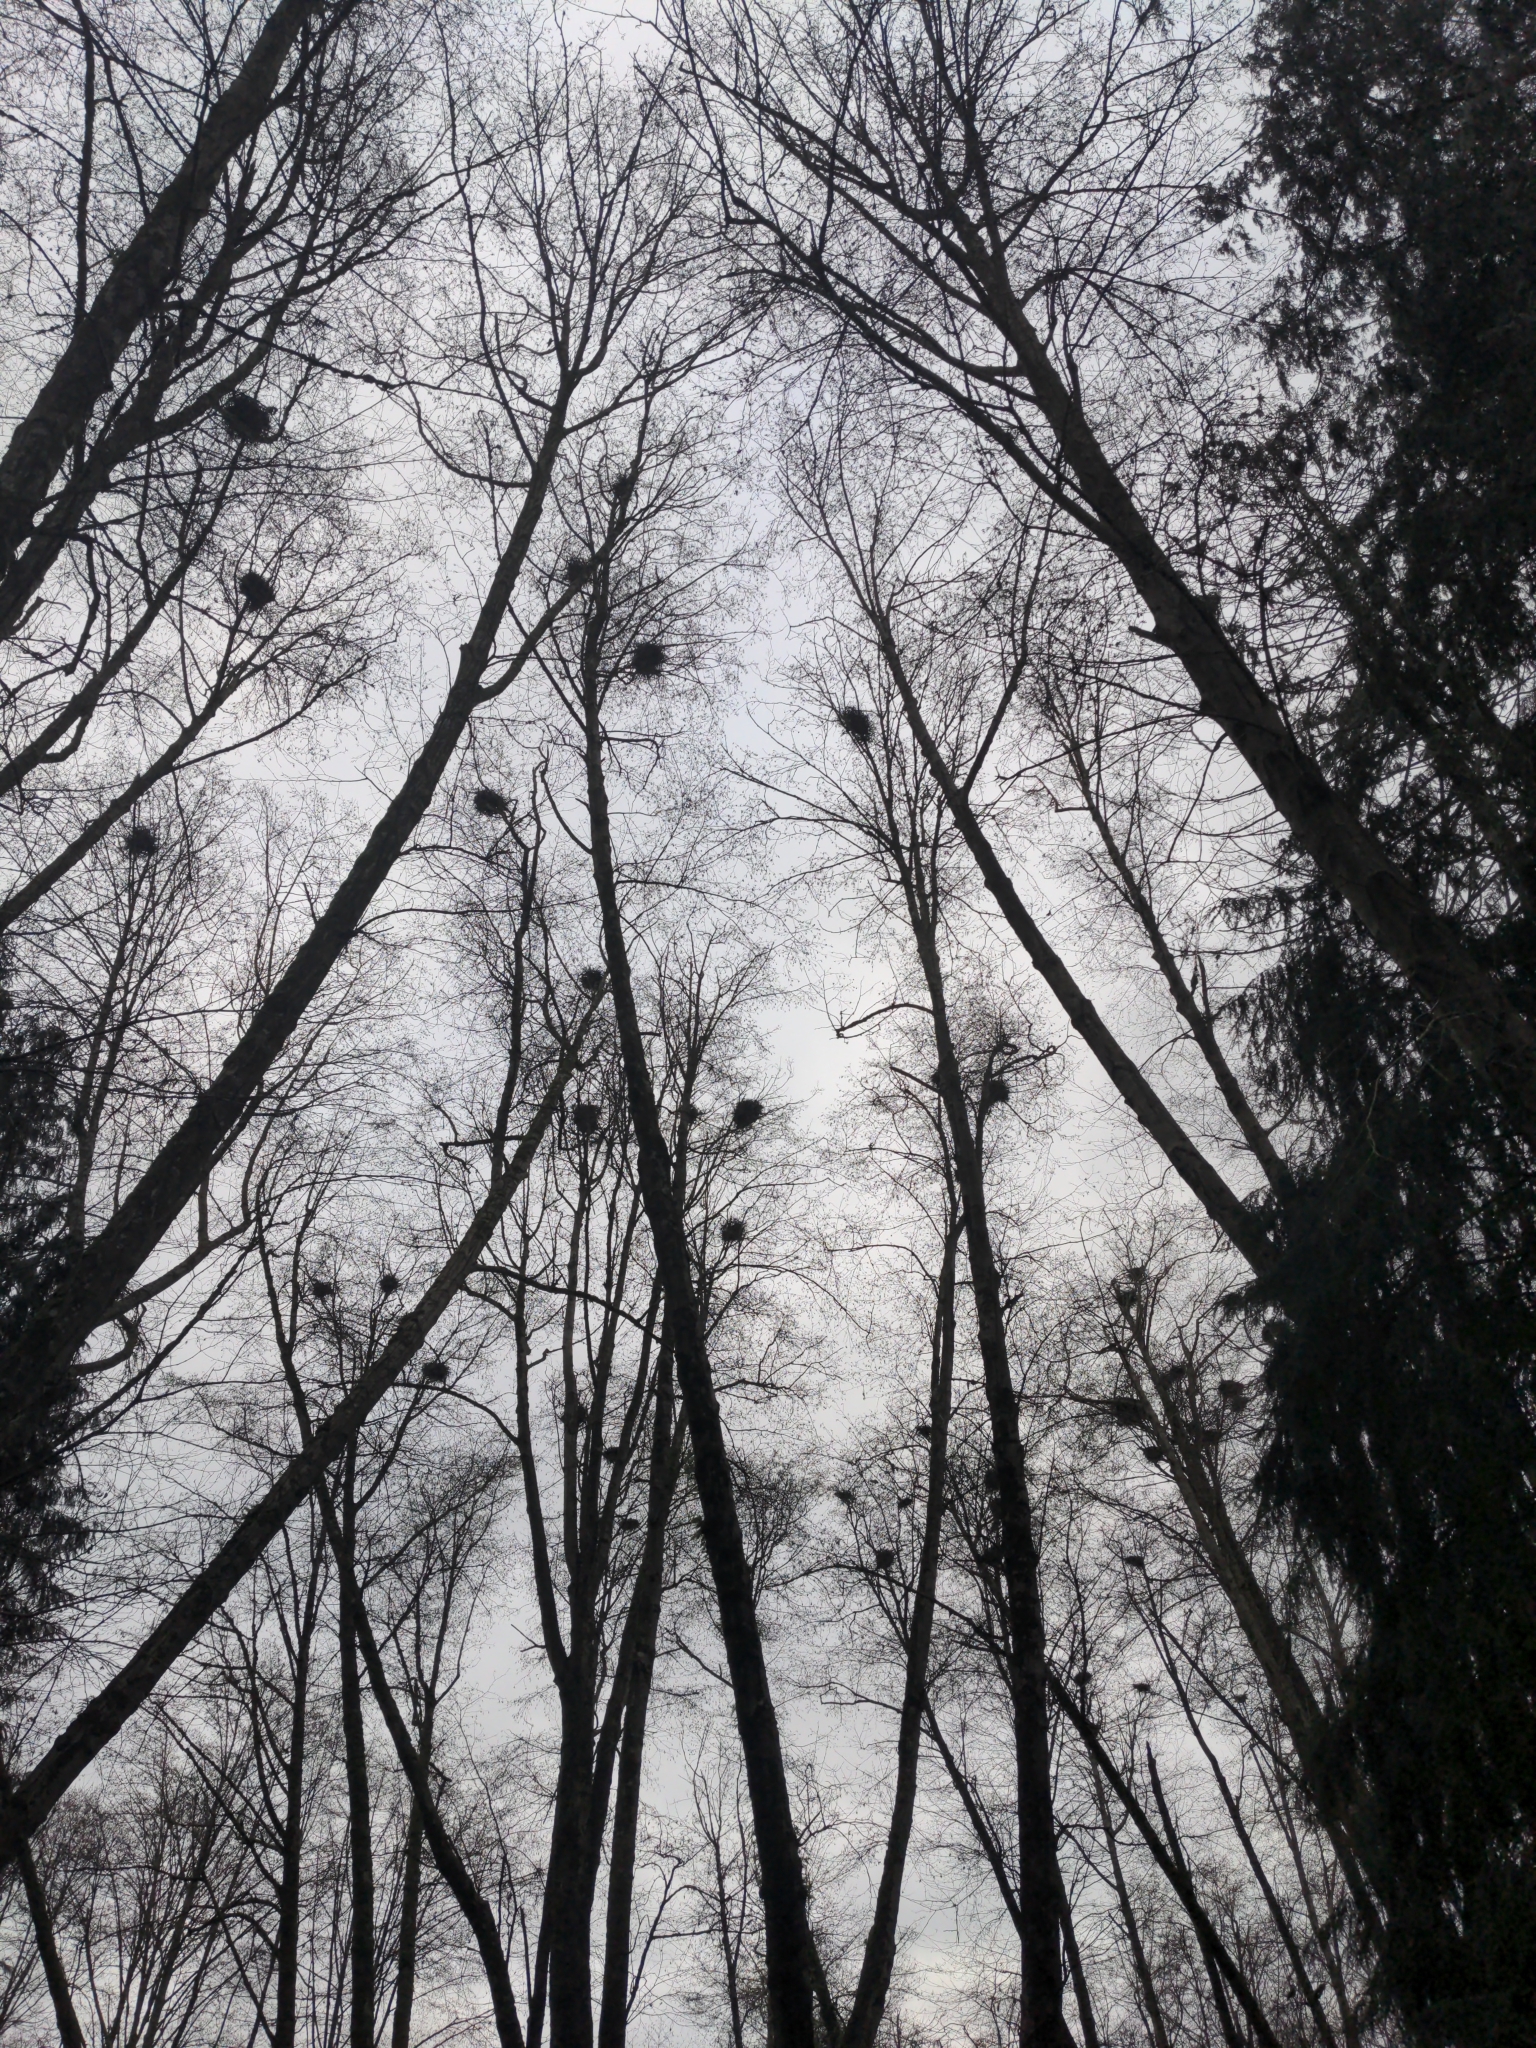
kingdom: Animalia
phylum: Chordata
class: Aves
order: Pelecaniformes
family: Ardeidae
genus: Ardea
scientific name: Ardea herodias
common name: Great blue heron
